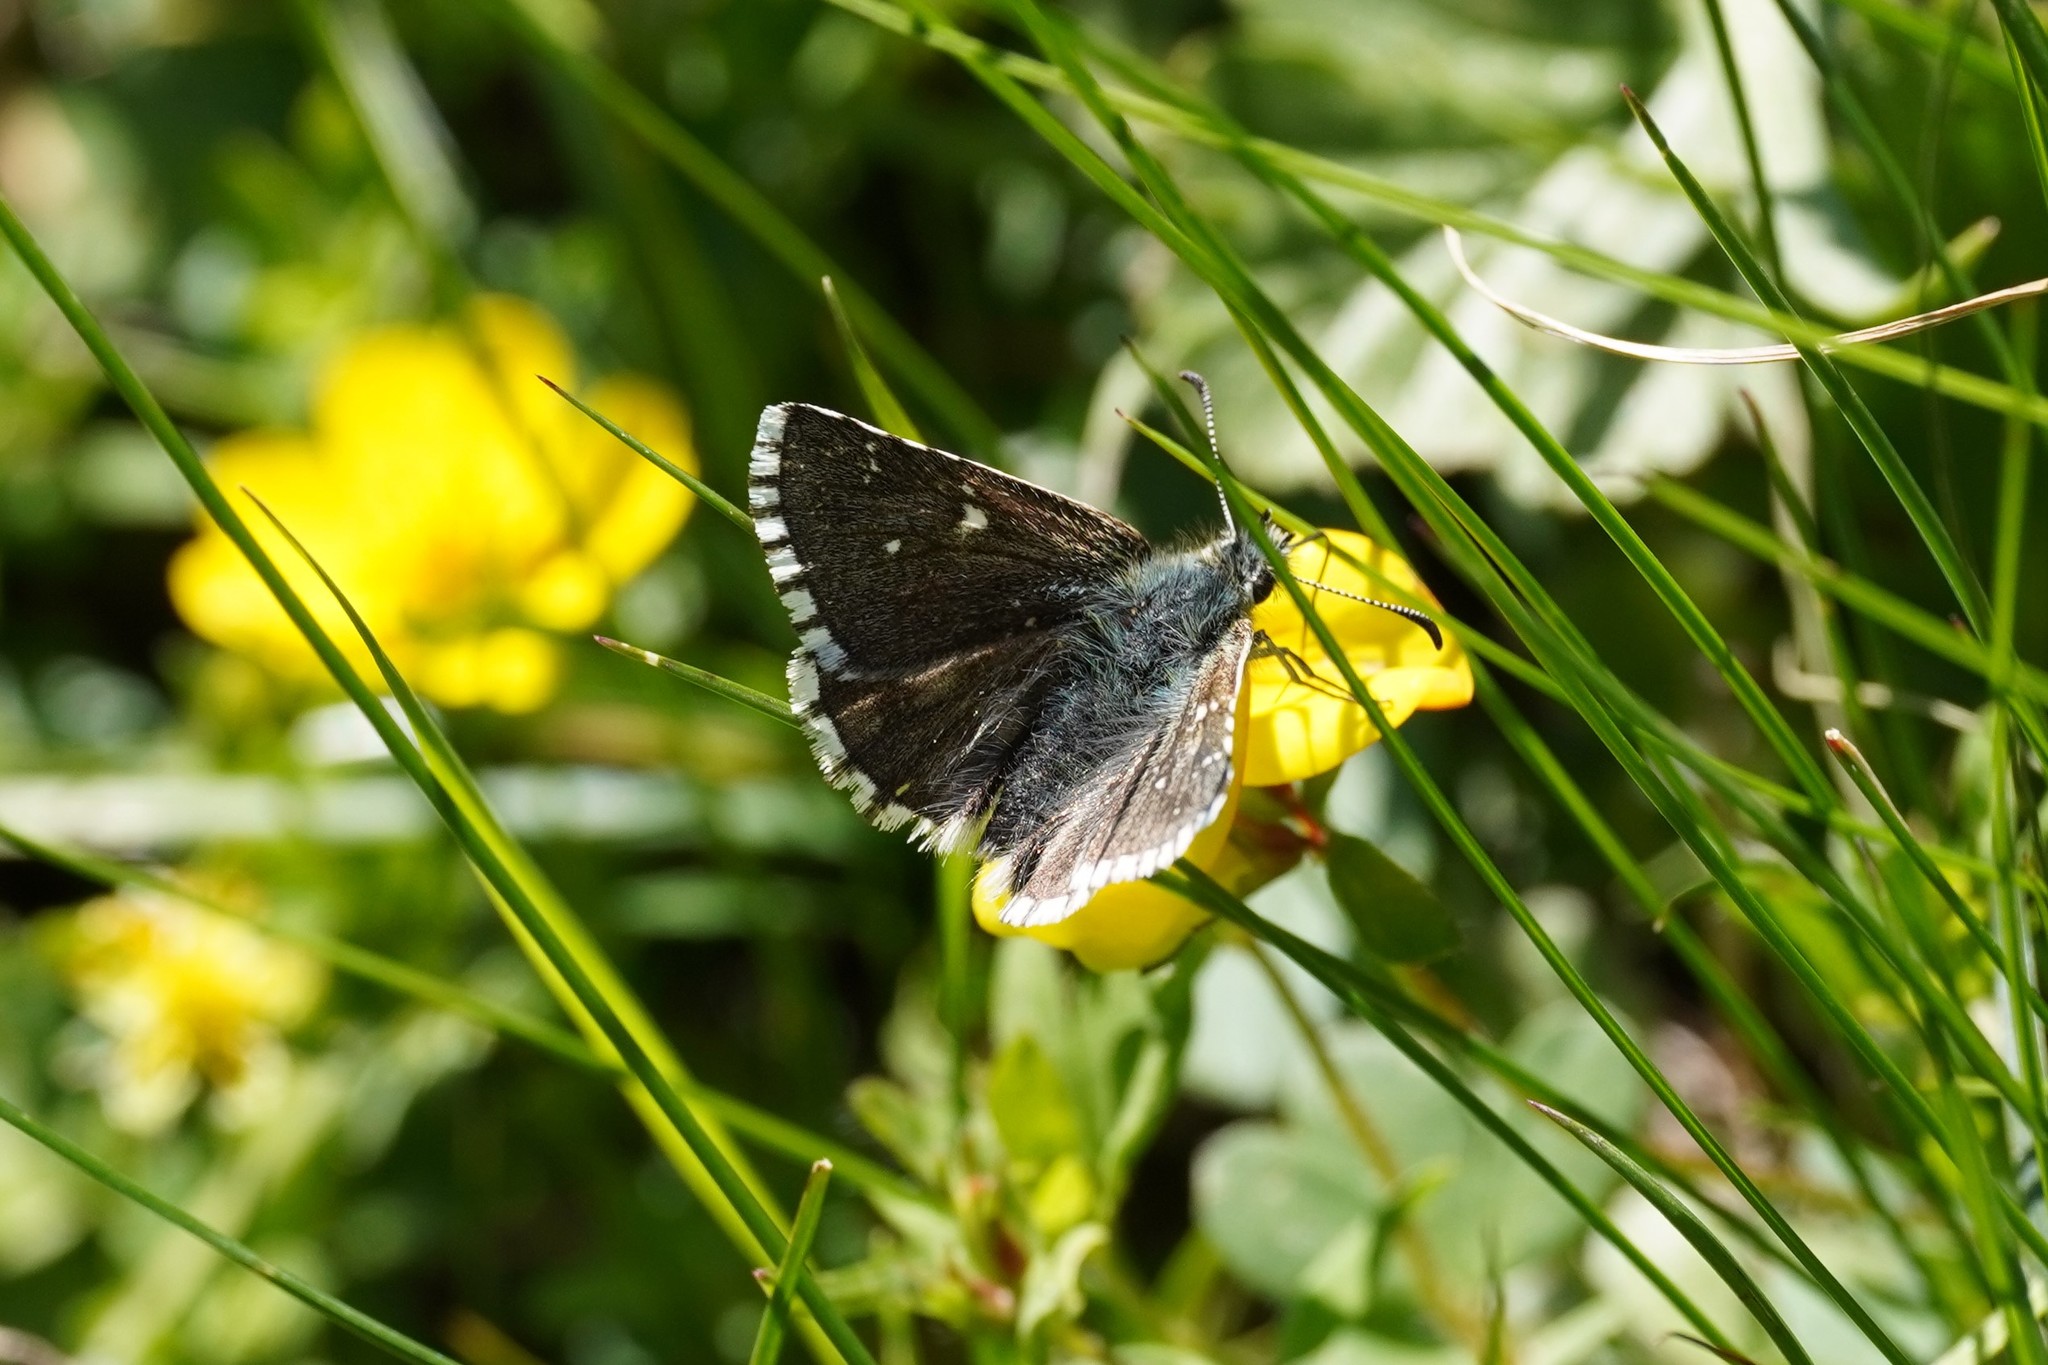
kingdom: Animalia
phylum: Arthropoda
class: Insecta
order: Lepidoptera
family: Hesperiidae
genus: Pyrgus
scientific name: Pyrgus cacaliae
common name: Dusky grizzled skipper
